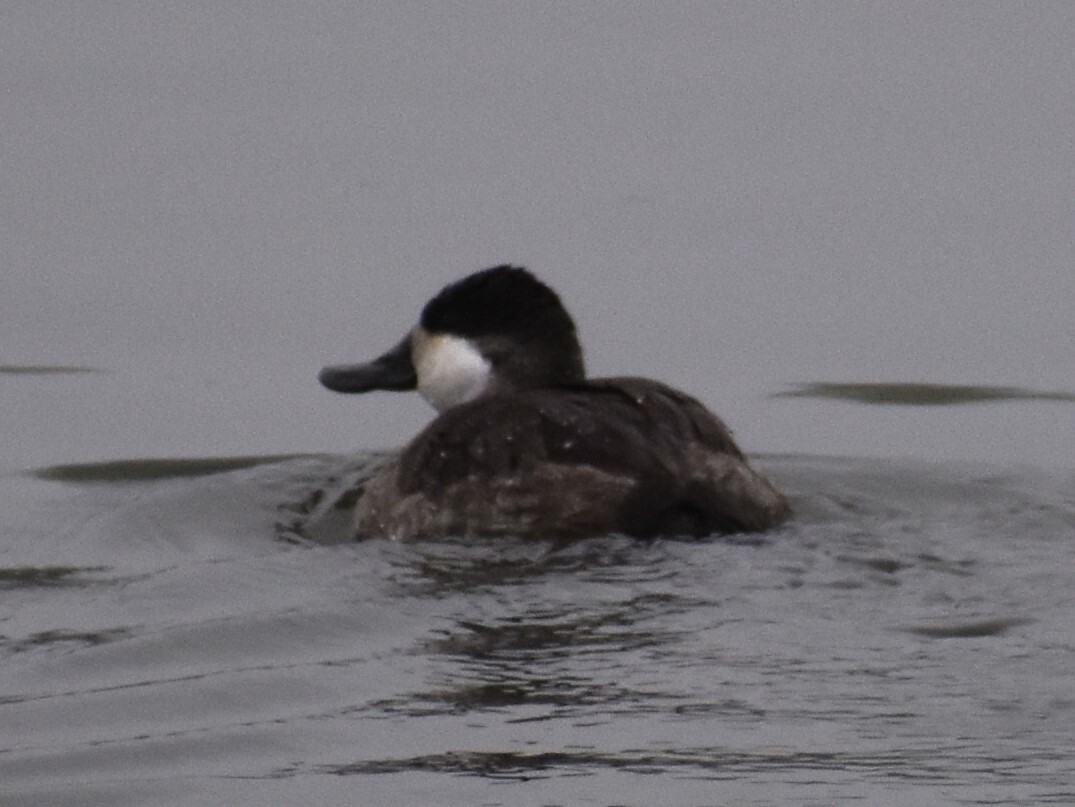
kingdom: Animalia
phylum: Chordata
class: Aves
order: Anseriformes
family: Anatidae
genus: Oxyura
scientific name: Oxyura jamaicensis
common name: Ruddy duck
